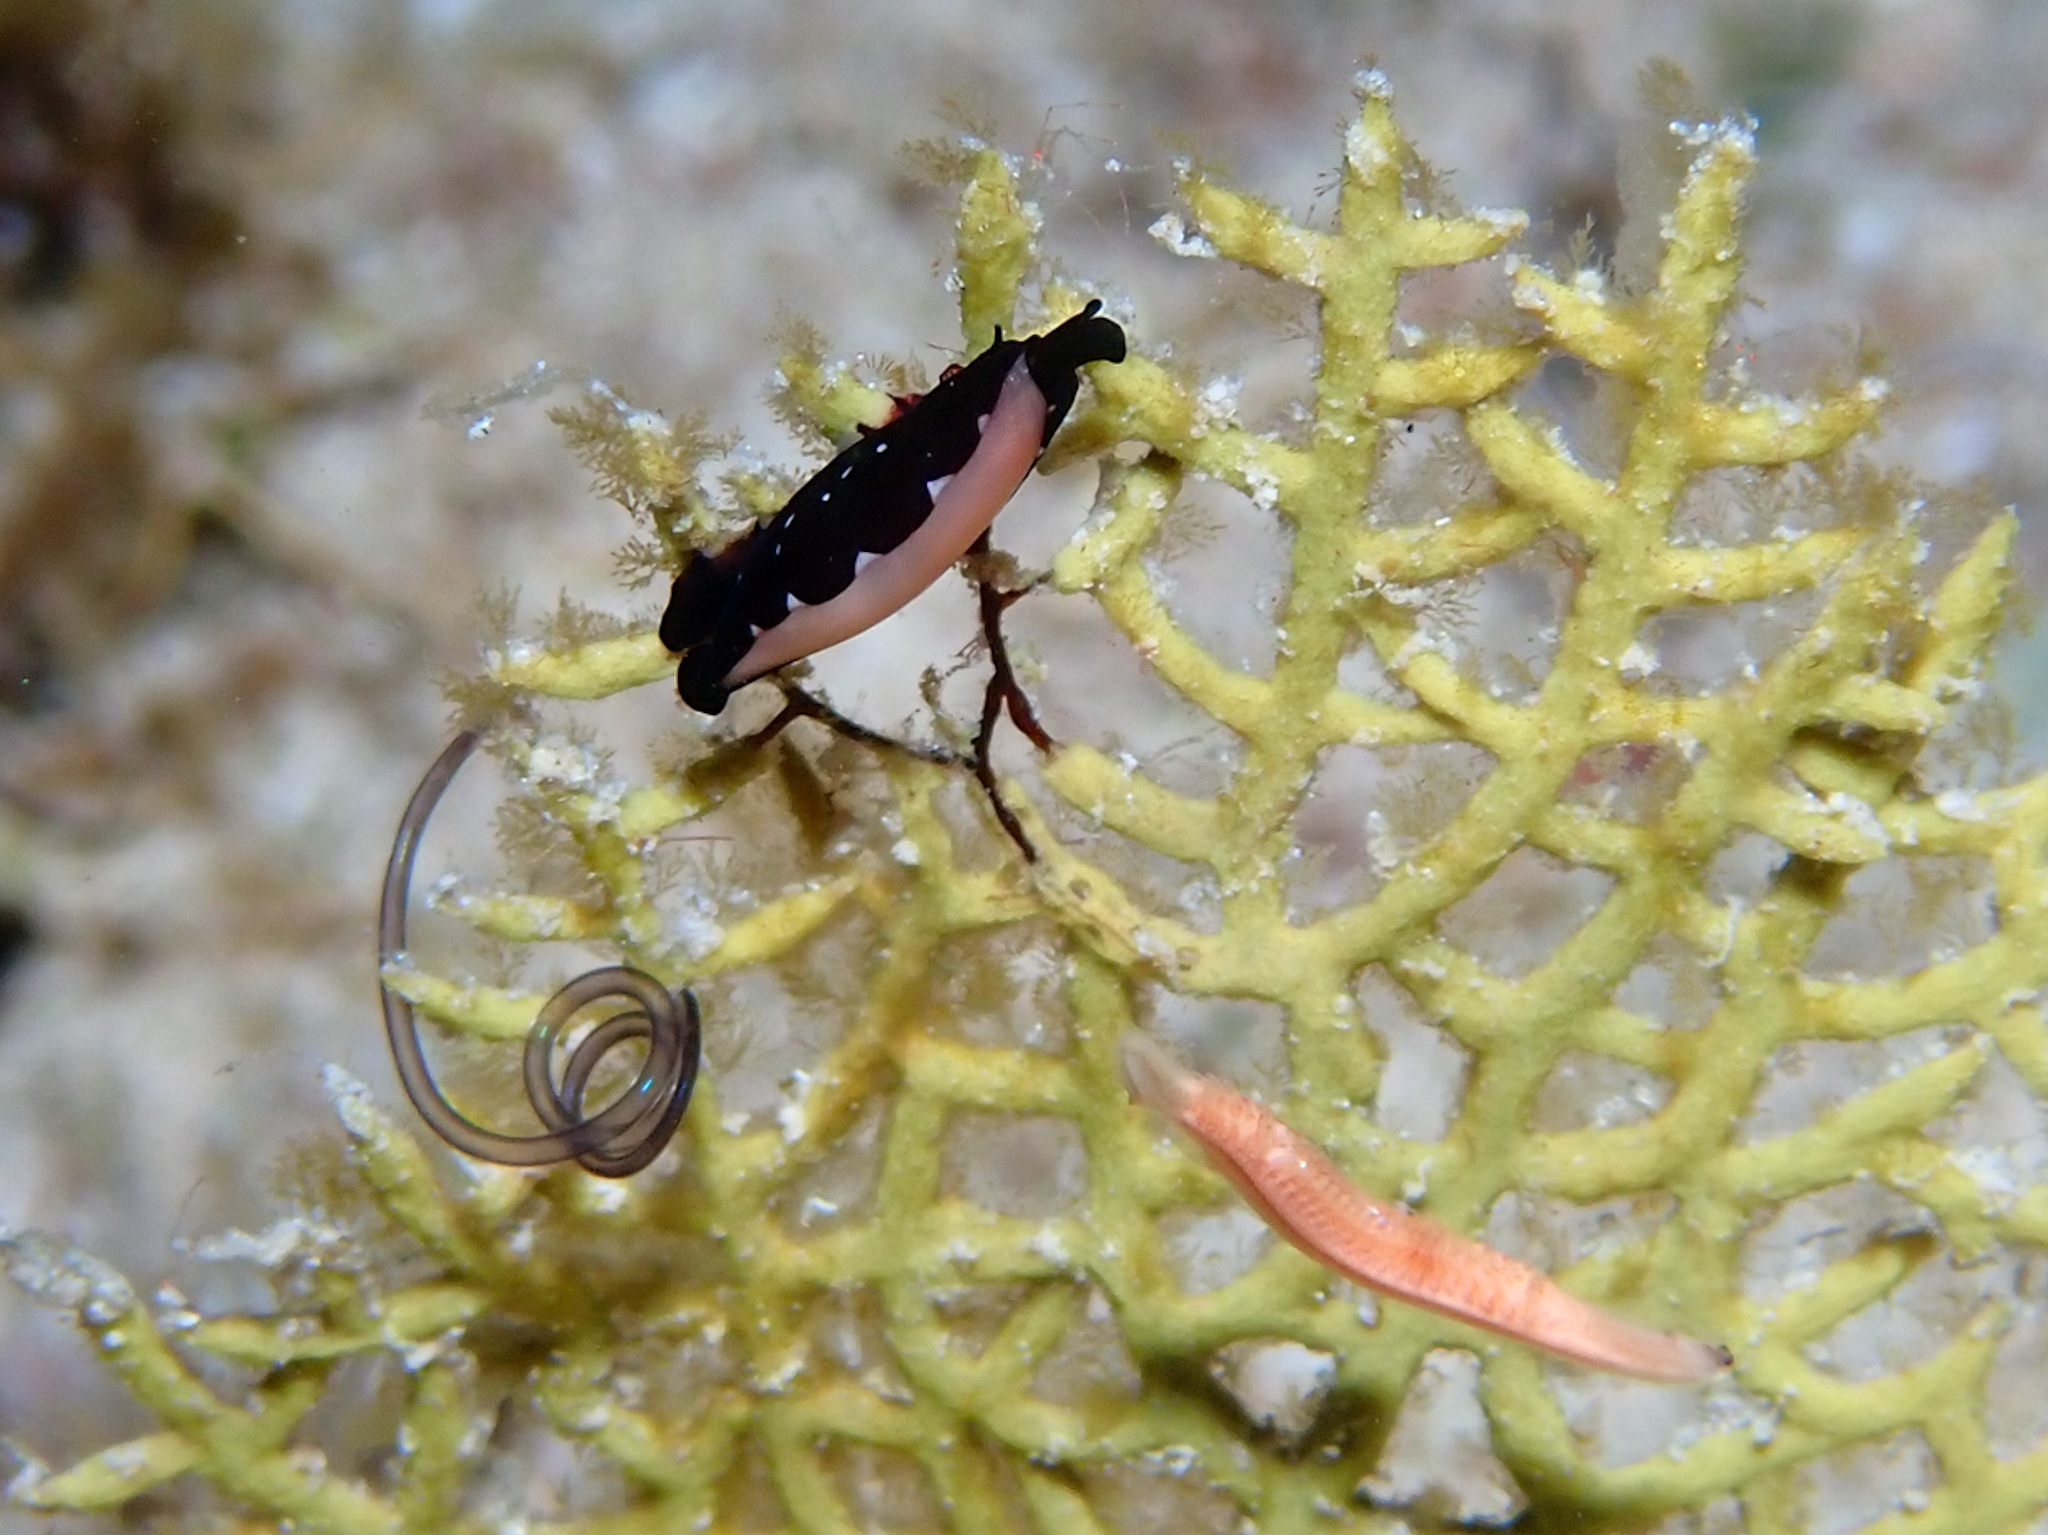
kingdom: Animalia
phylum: Mollusca
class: Gastropoda
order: Littorinimorpha
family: Ovulidae
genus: Cyphoma
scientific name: Cyphoma cassidyae
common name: Black morph cyphoma
